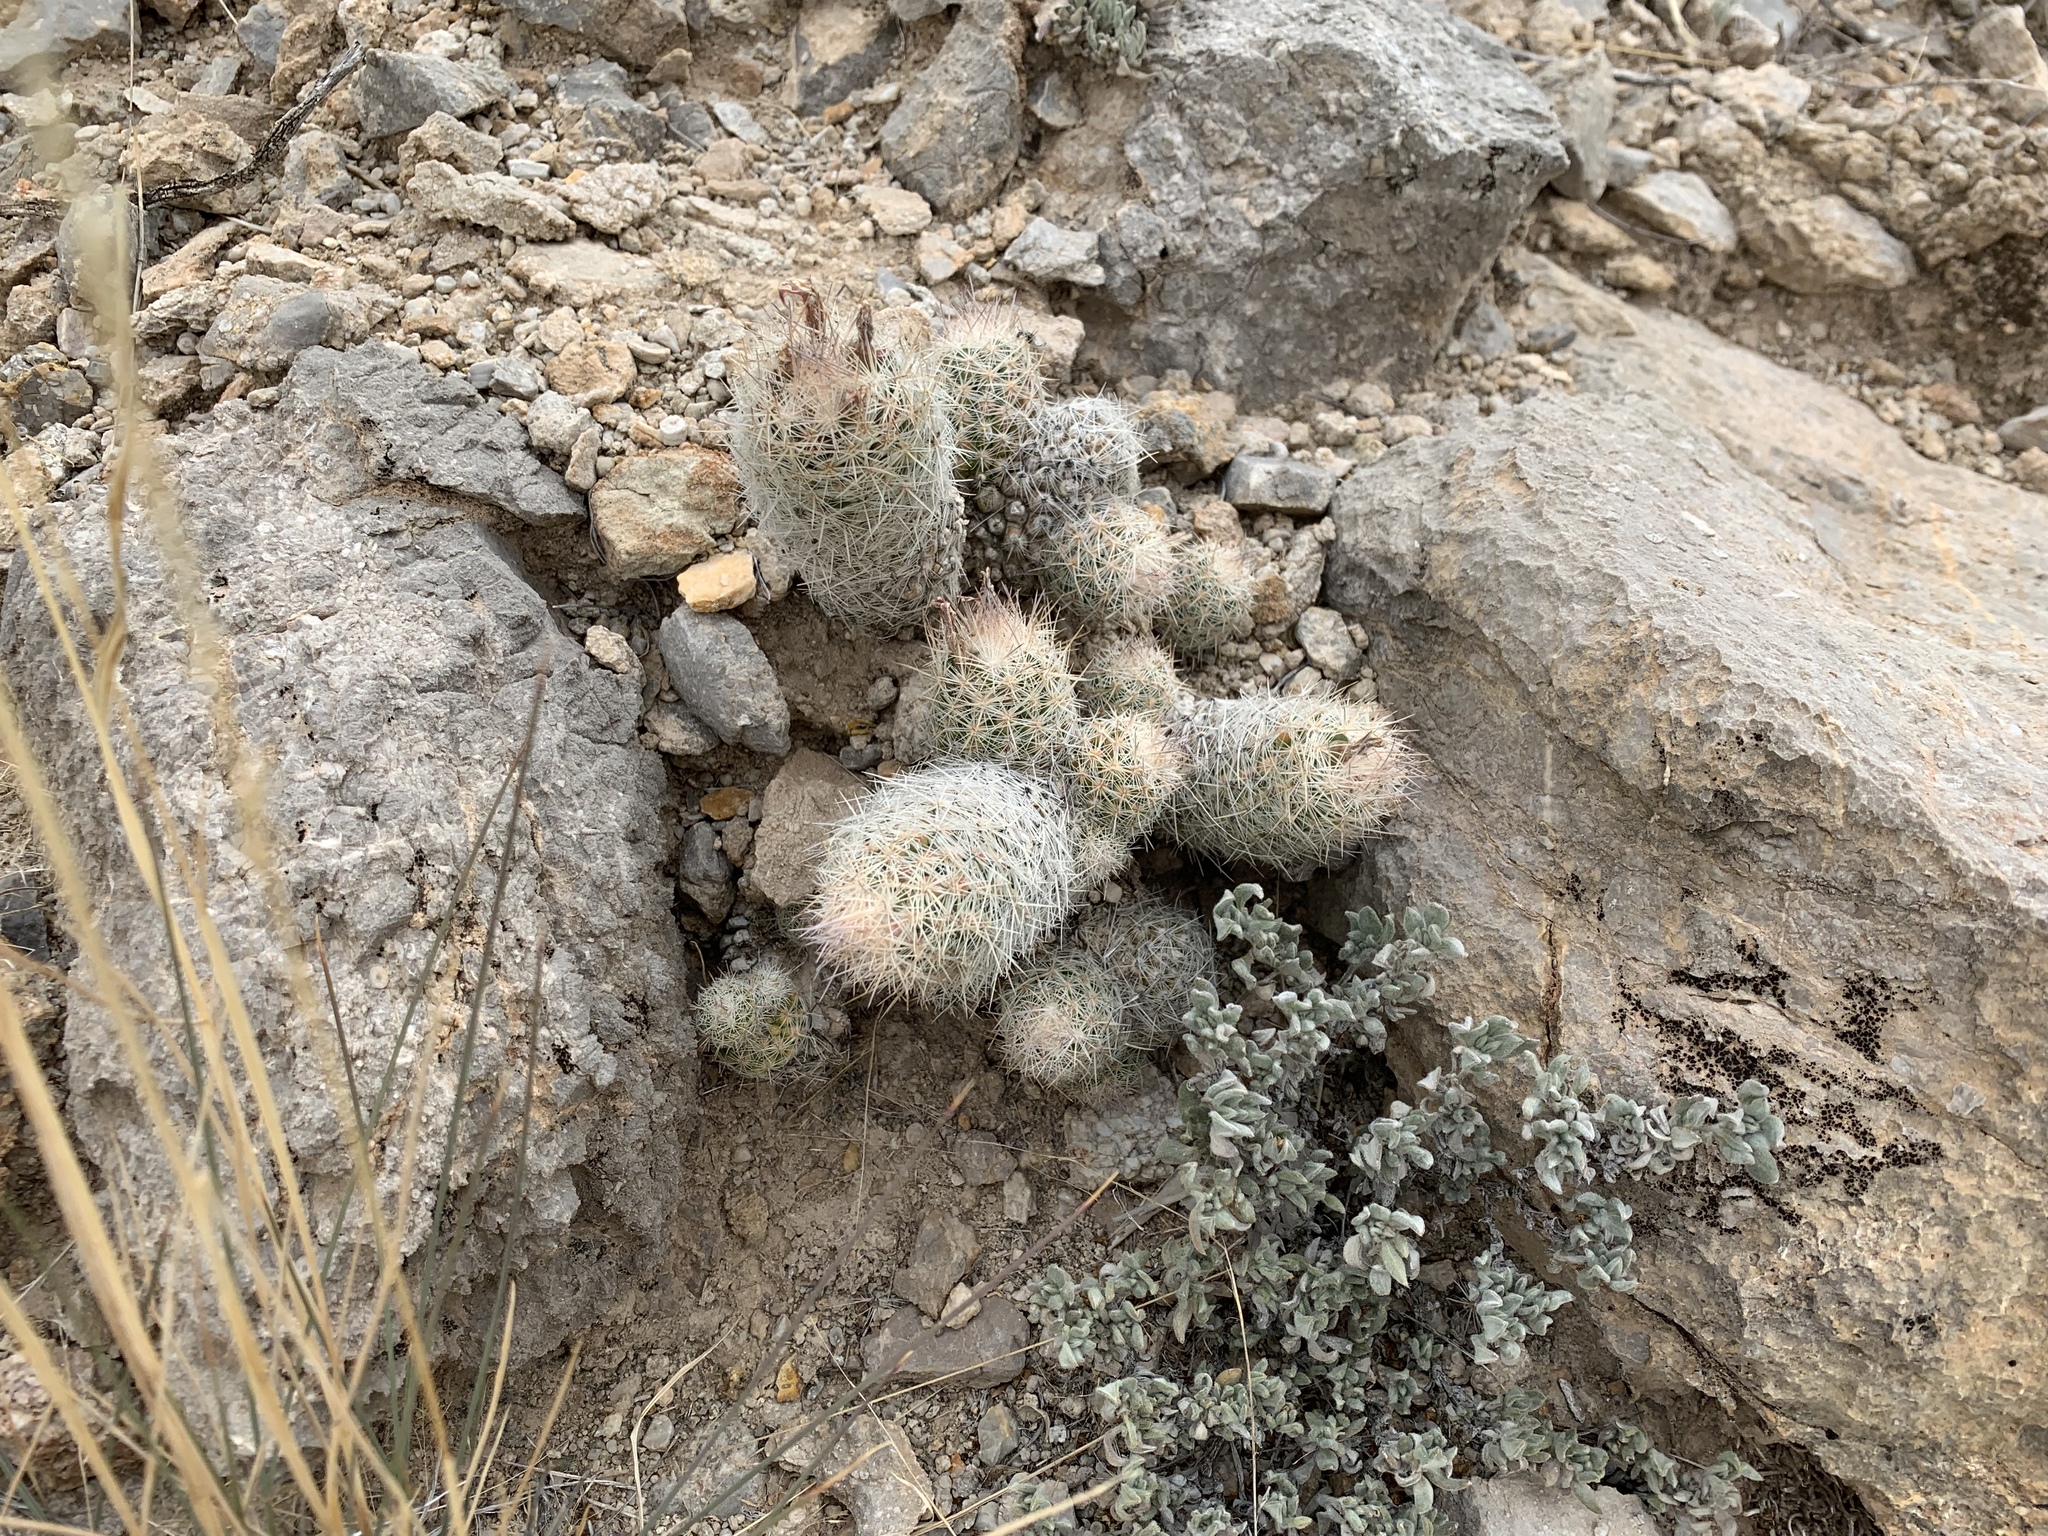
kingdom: Plantae
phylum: Tracheophyta
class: Magnoliopsida
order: Caryophyllales
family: Cactaceae
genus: Pelecyphora
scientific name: Pelecyphora tuberculosa
